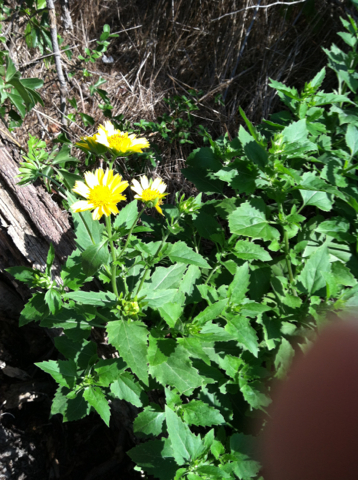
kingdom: Plantae
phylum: Tracheophyta
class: Magnoliopsida
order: Asterales
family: Asteraceae
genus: Verbesina
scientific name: Verbesina encelioides
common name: Golden crownbeard
